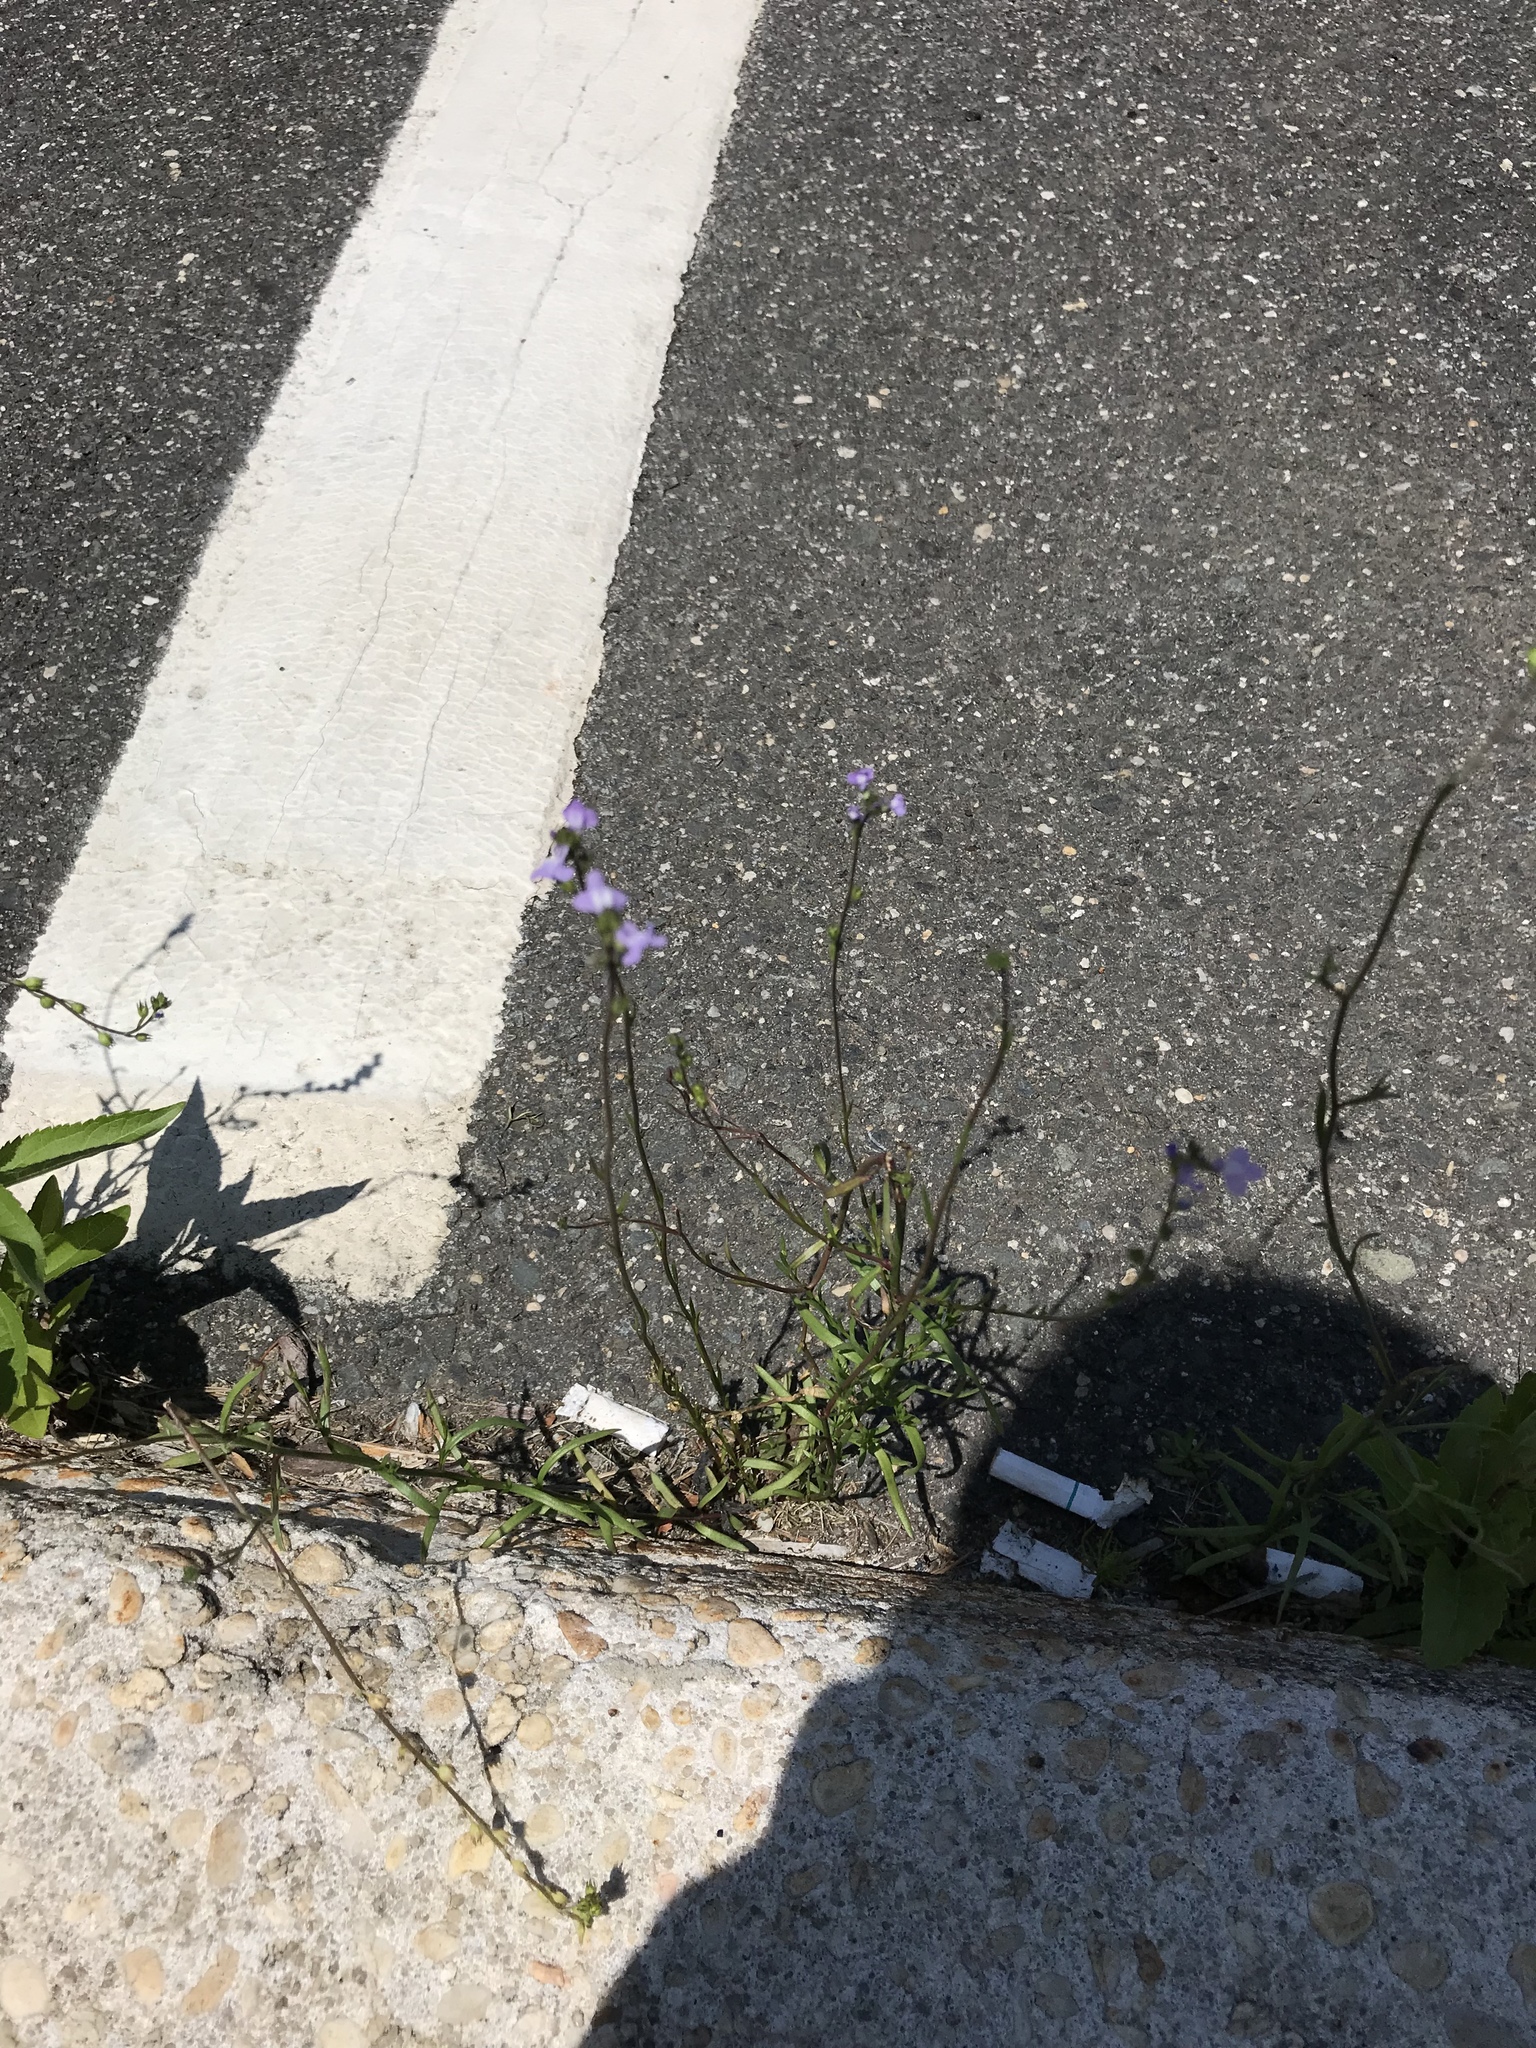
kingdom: Plantae
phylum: Tracheophyta
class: Magnoliopsida
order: Lamiales
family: Plantaginaceae
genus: Nuttallanthus
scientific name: Nuttallanthus canadensis
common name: Blue toadflax
